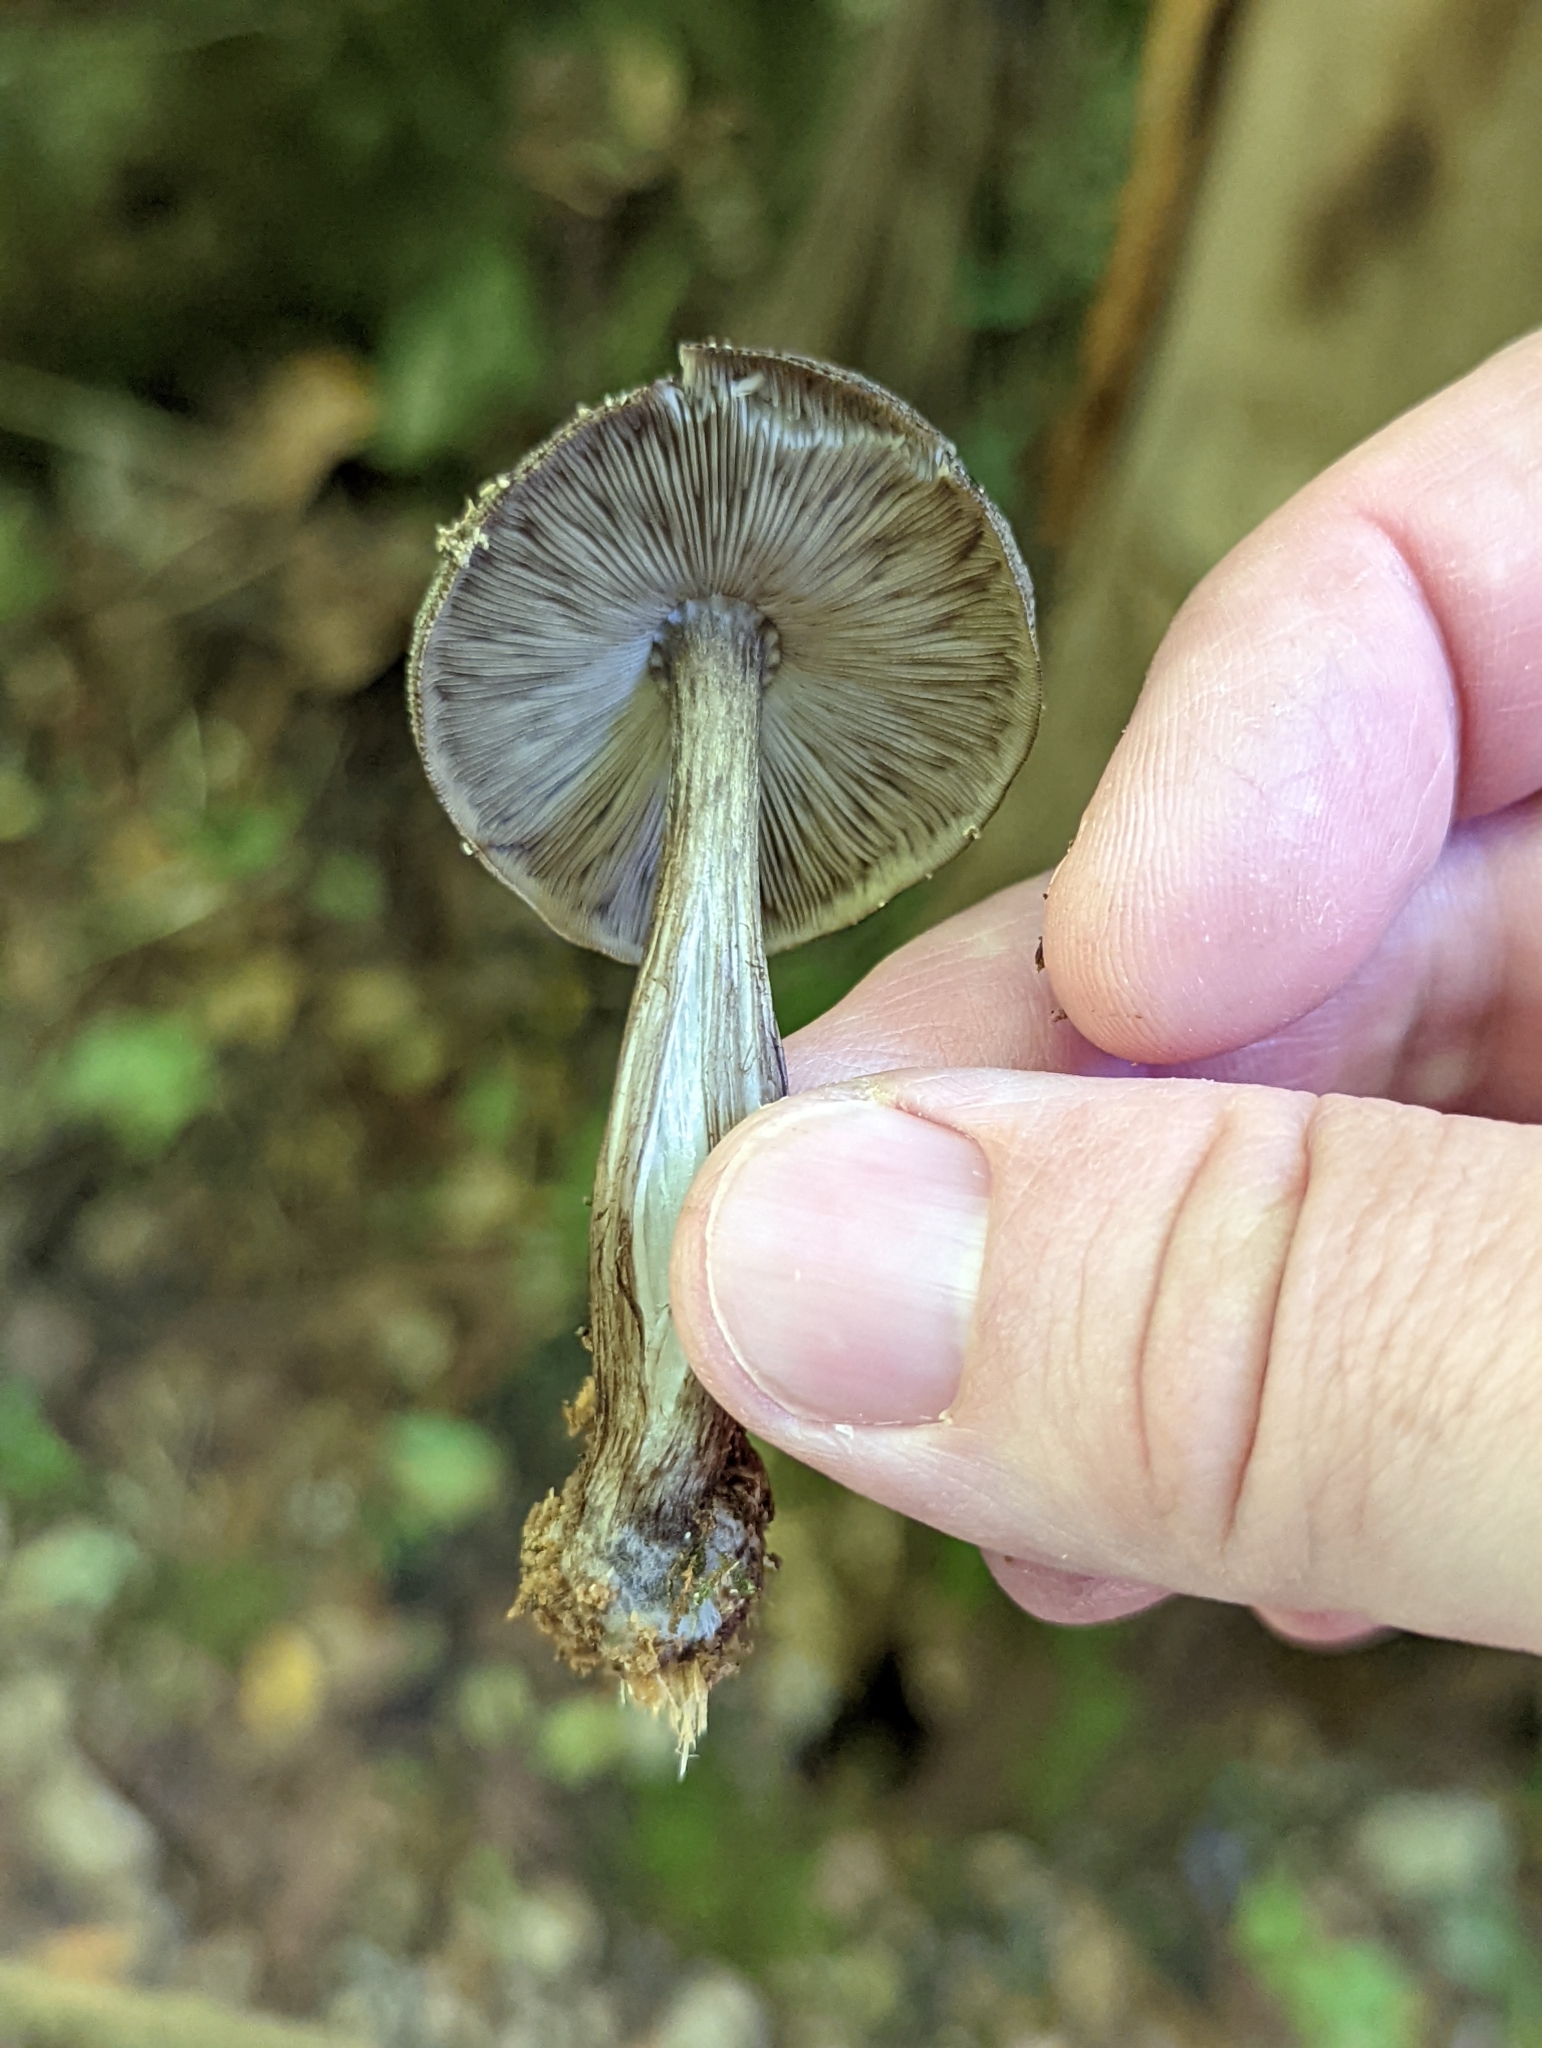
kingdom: Fungi
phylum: Basidiomycota
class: Agaricomycetes
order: Agaricales
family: Pluteaceae
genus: Pluteus
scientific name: Pluteus velutinornatus
